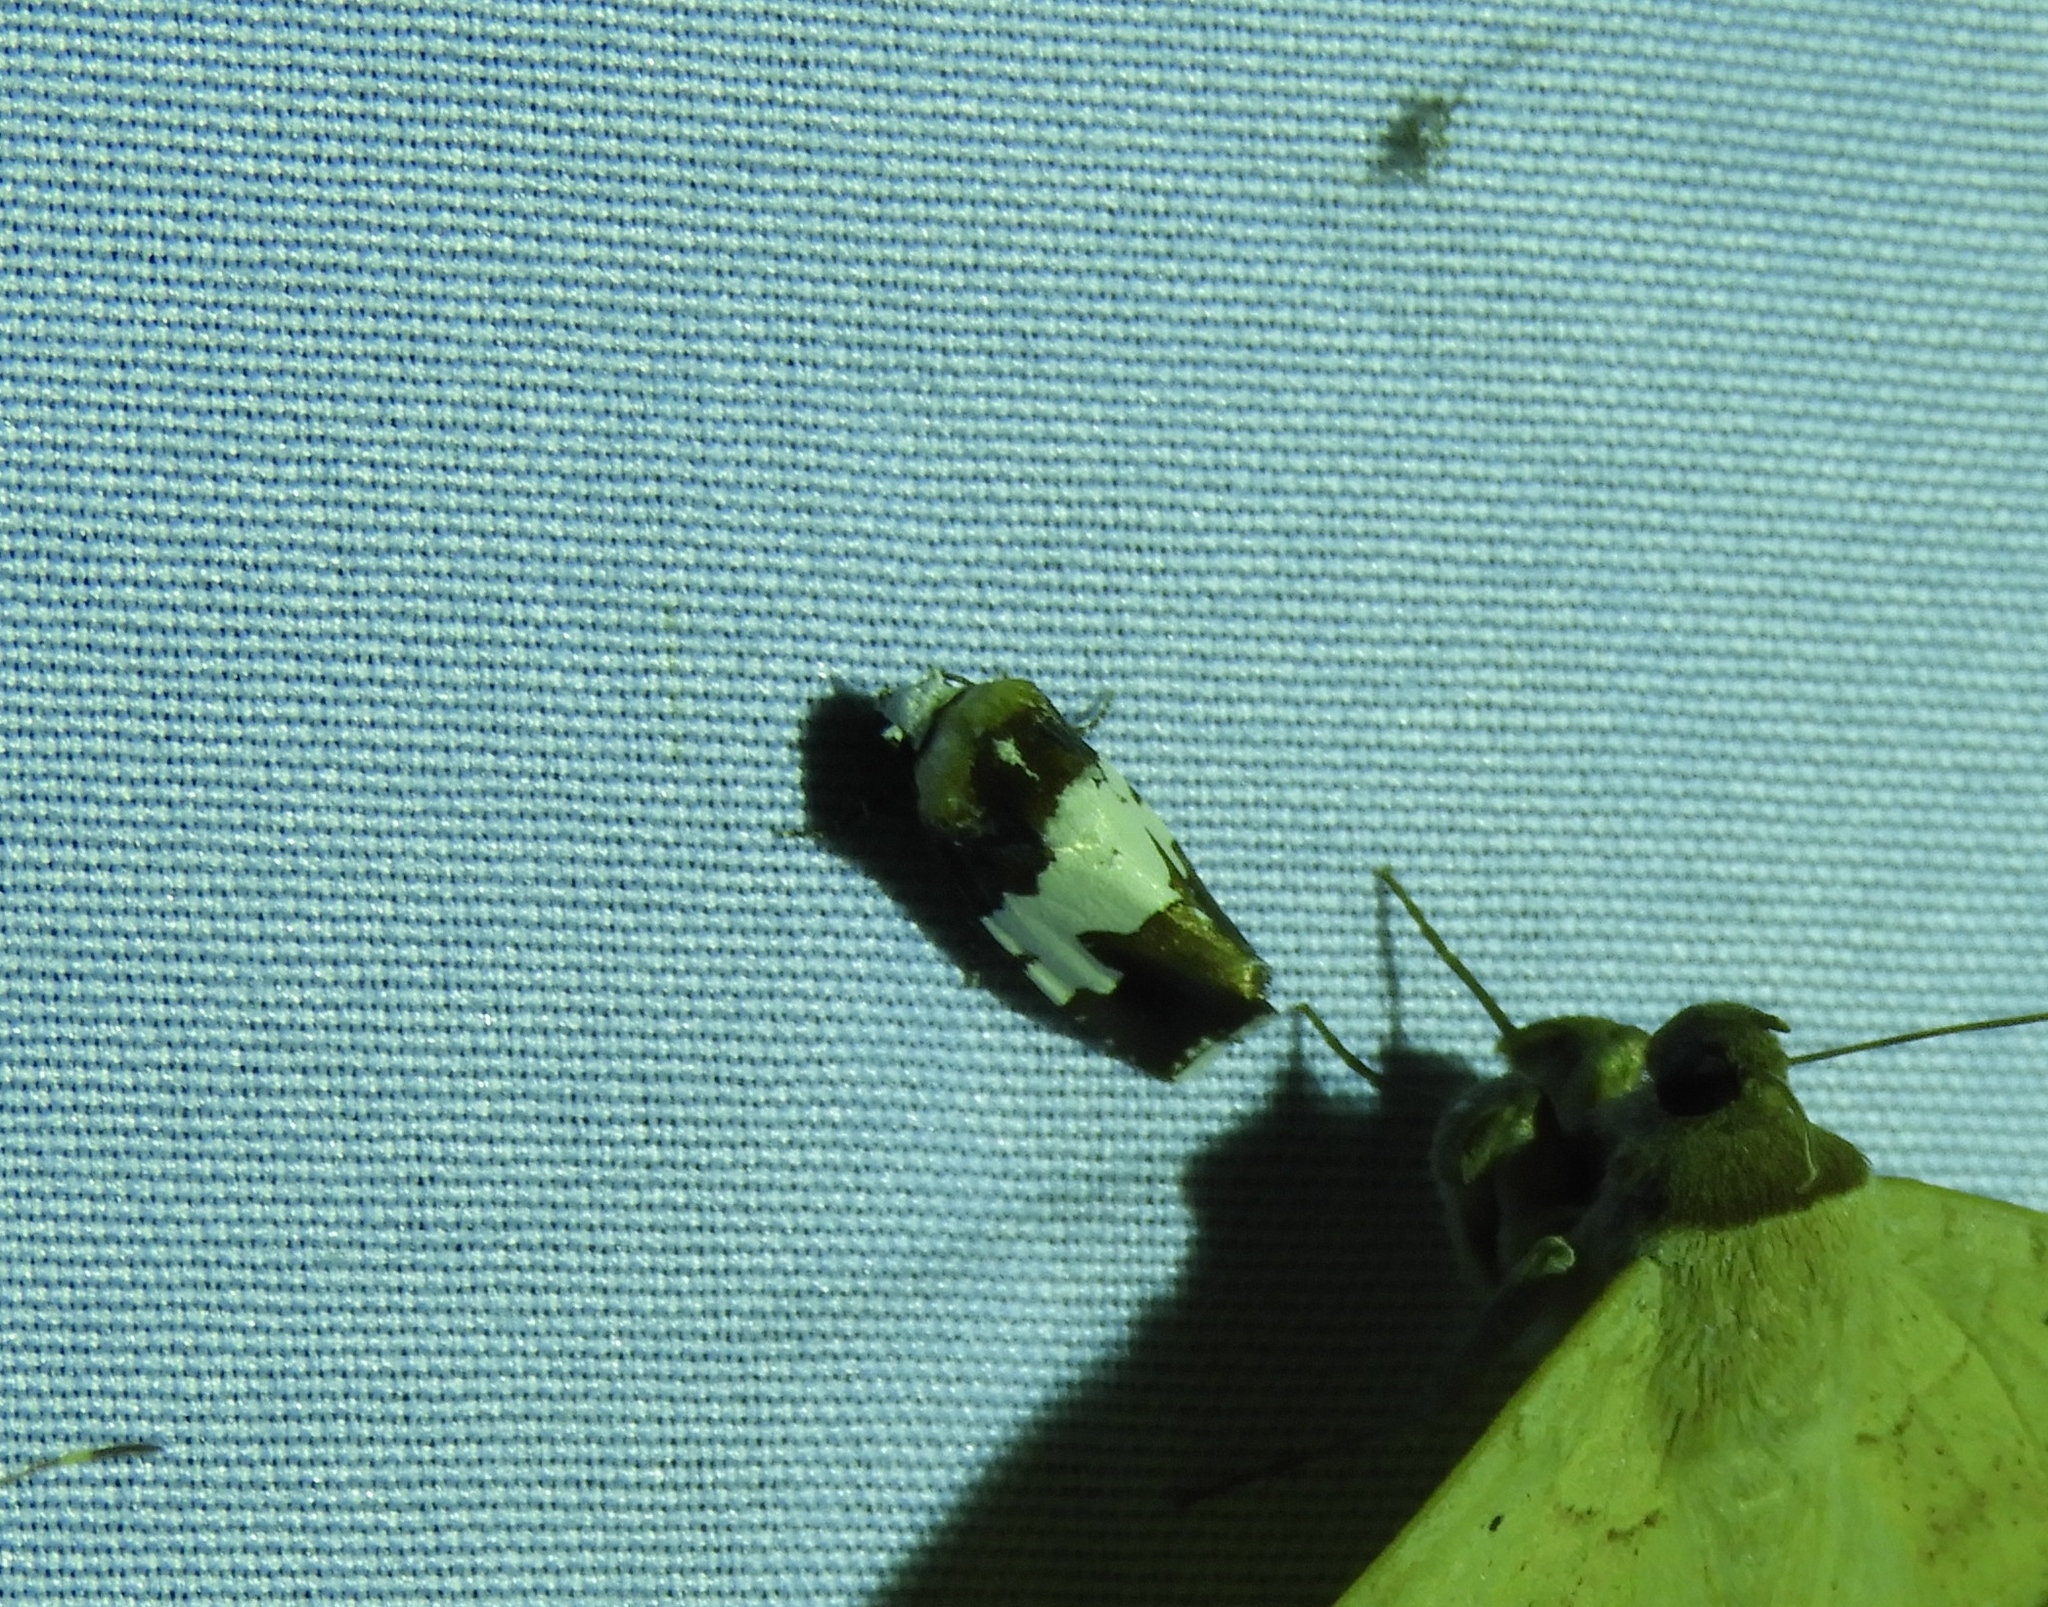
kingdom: Animalia
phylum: Arthropoda
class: Insecta
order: Lepidoptera
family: Noctuidae
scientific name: Noctuidae
